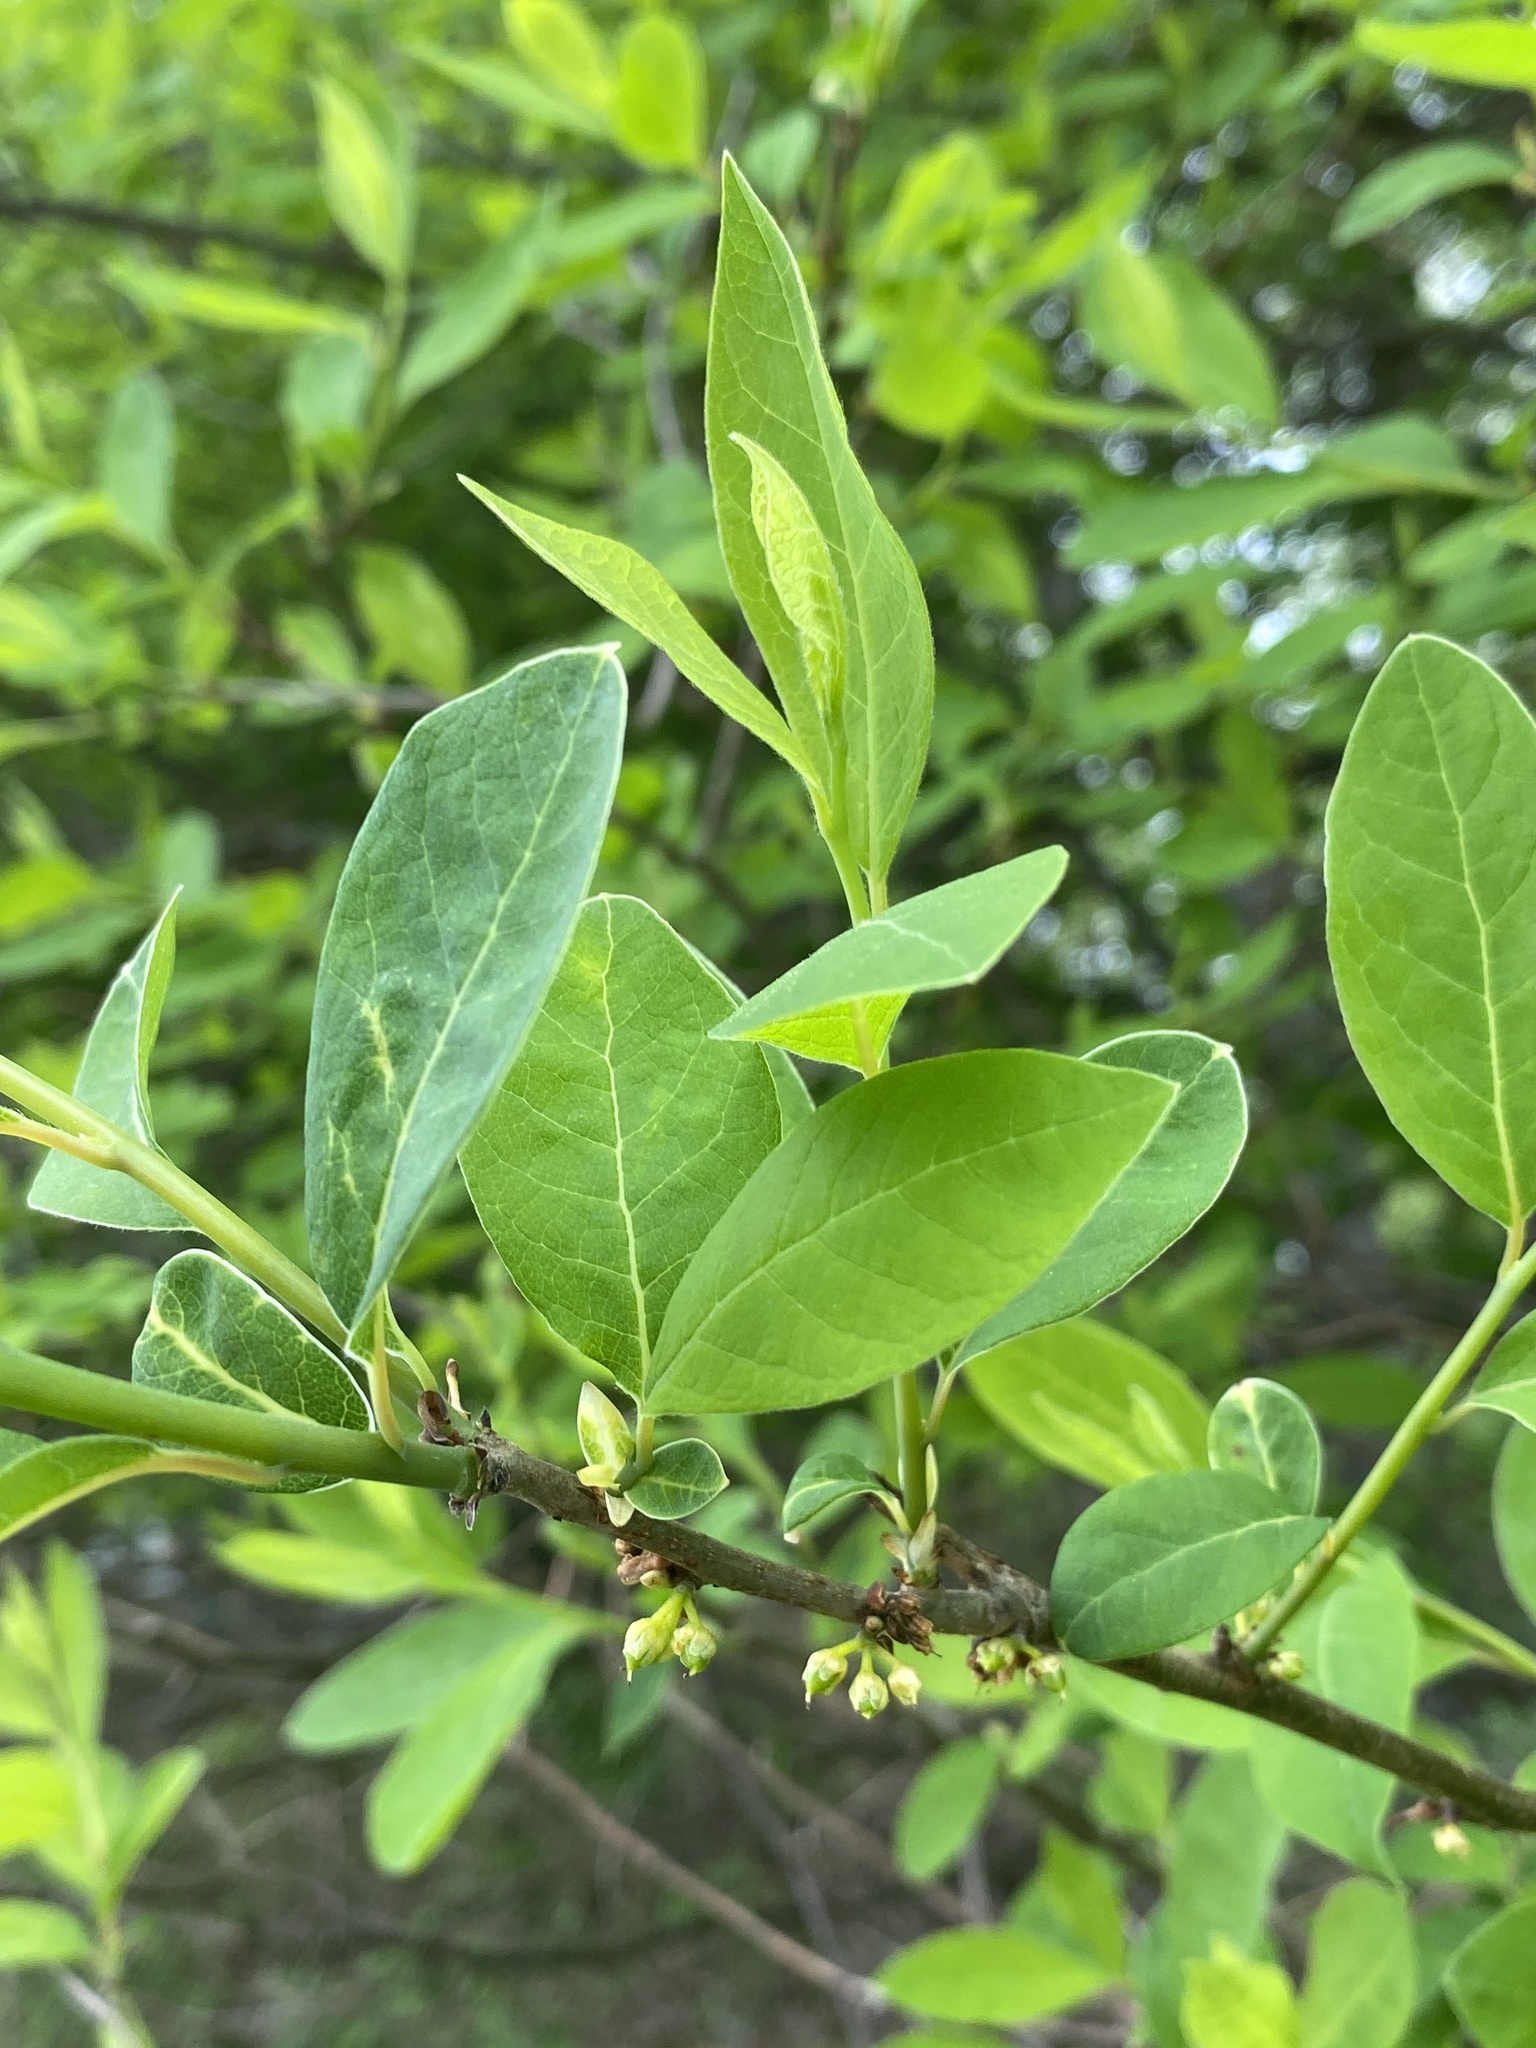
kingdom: Plantae
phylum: Tracheophyta
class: Magnoliopsida
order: Laurales
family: Lauraceae
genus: Lindera
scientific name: Lindera benzoin
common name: Spicebush
